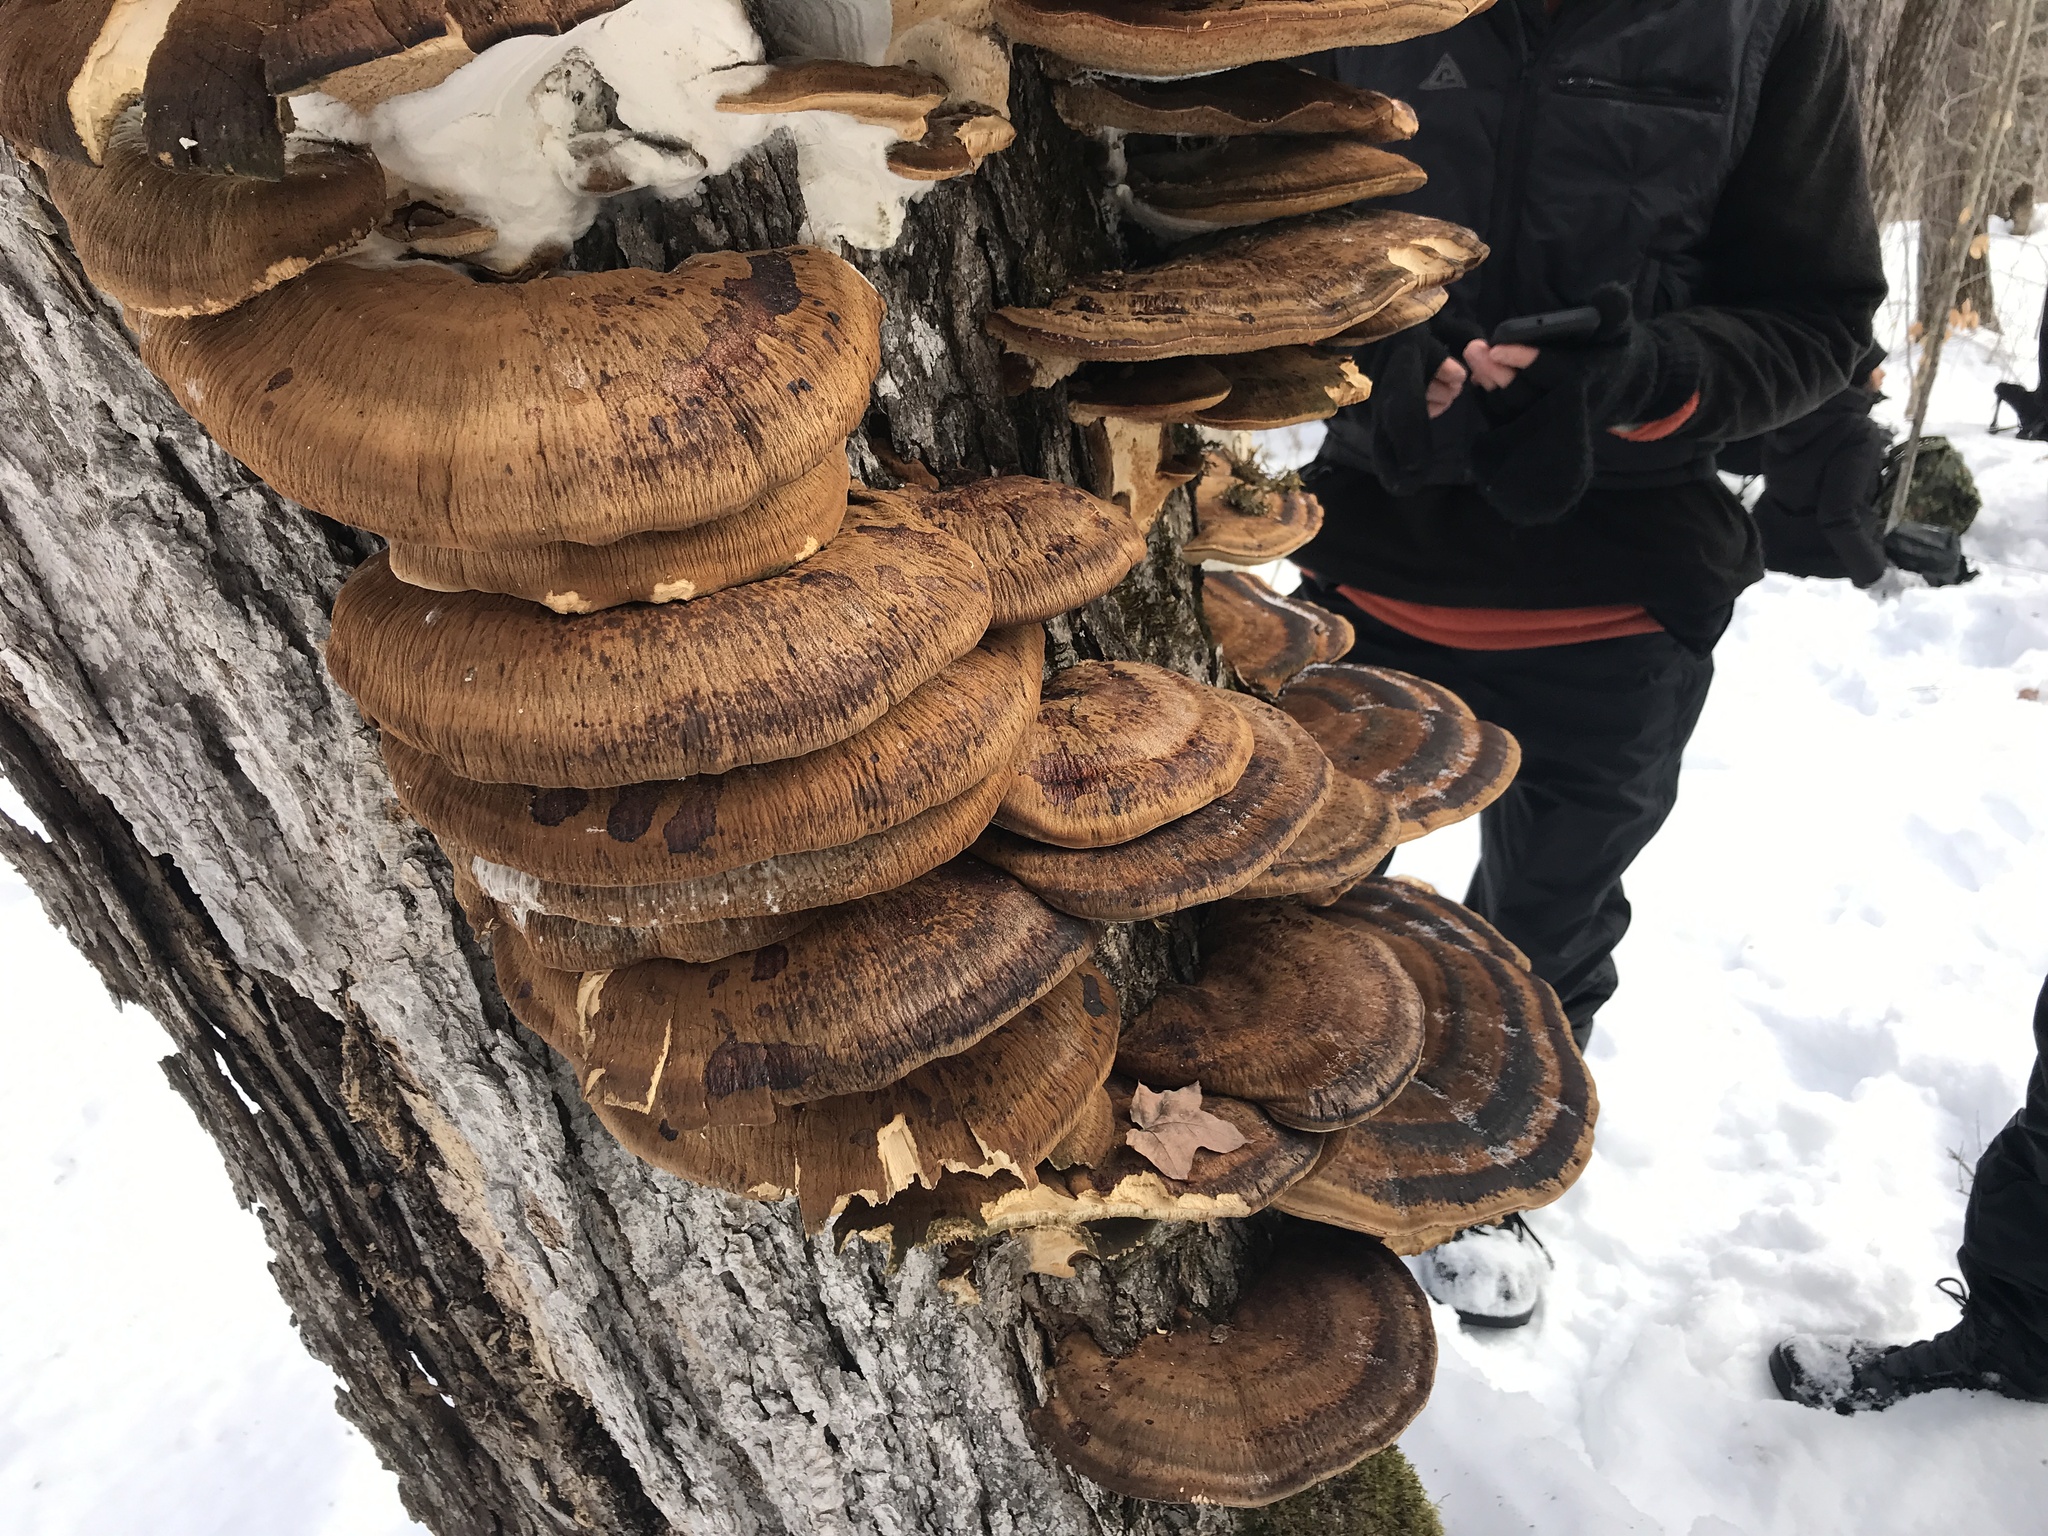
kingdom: Fungi
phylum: Basidiomycota
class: Agaricomycetes
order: Polyporales
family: Ischnodermataceae
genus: Ischnoderma
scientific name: Ischnoderma resinosum
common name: Resinous polypore
